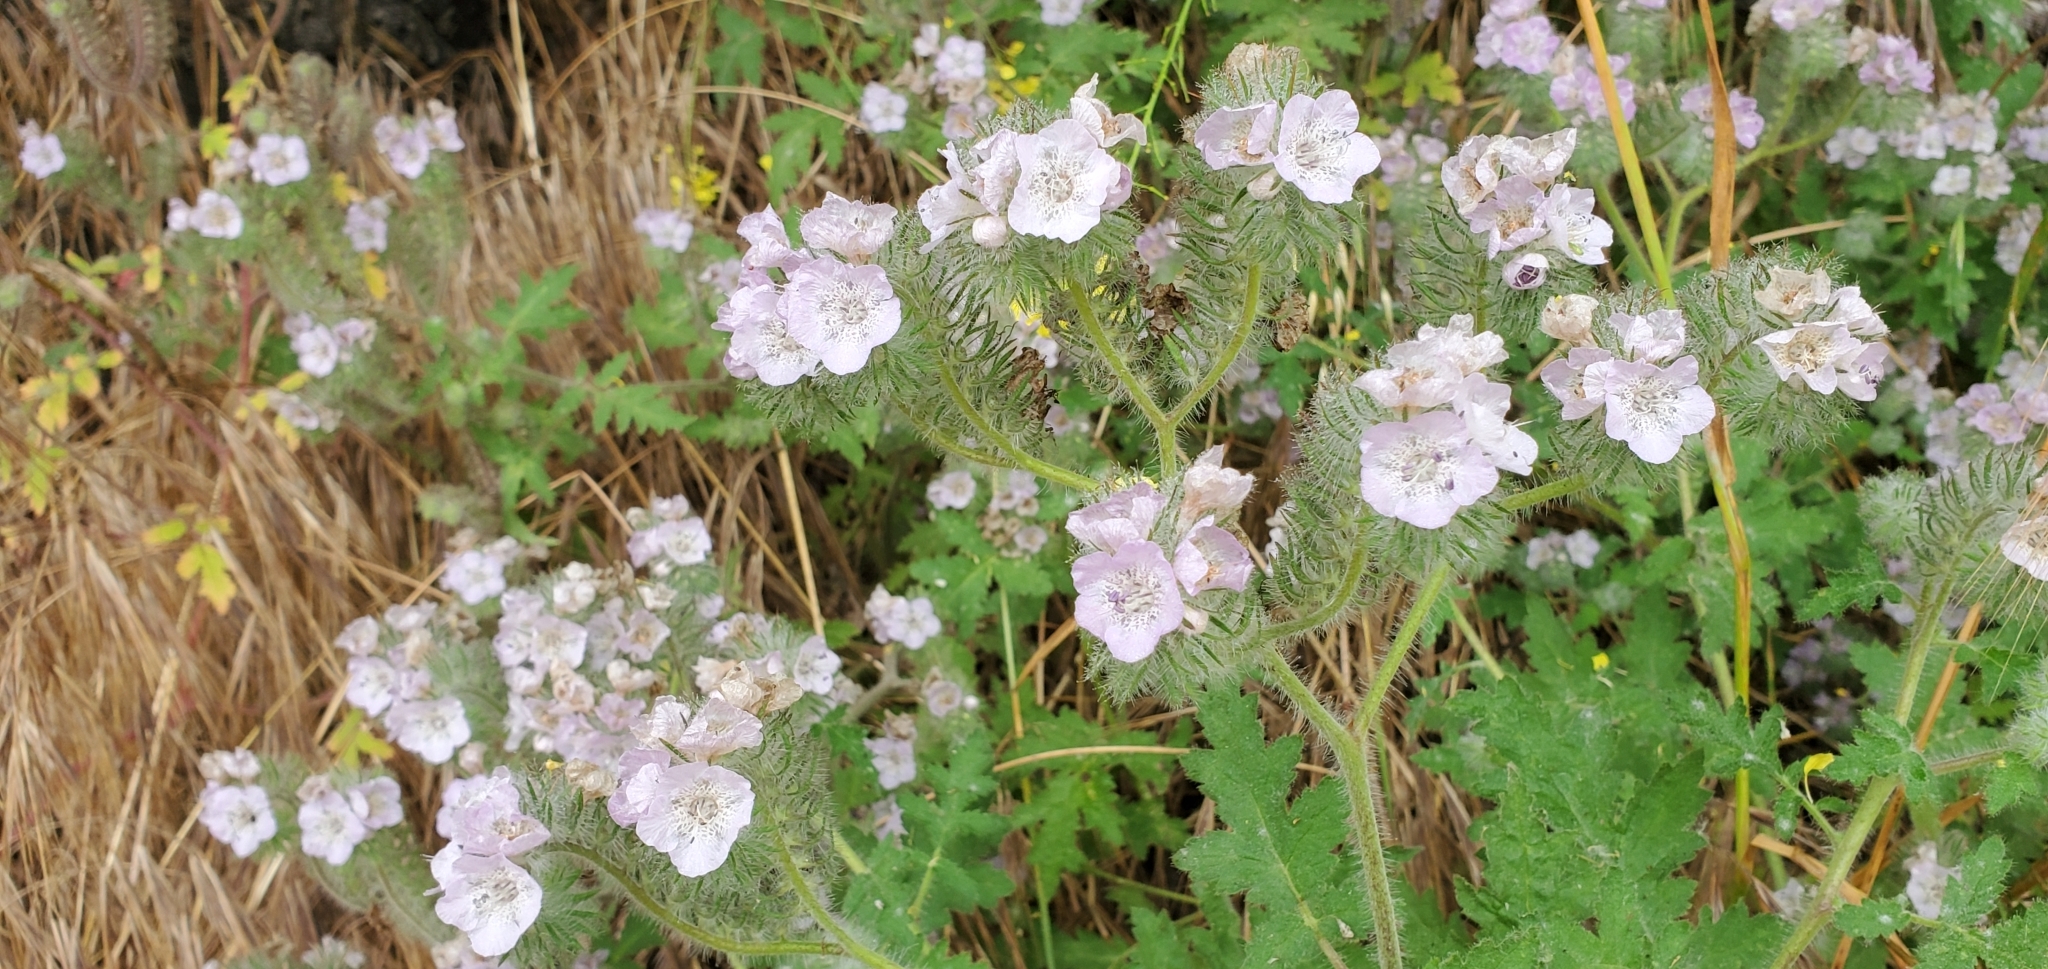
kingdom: Plantae
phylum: Tracheophyta
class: Magnoliopsida
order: Boraginales
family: Hydrophyllaceae
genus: Phacelia
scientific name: Phacelia cicutaria
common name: Caterpillar phacelia
